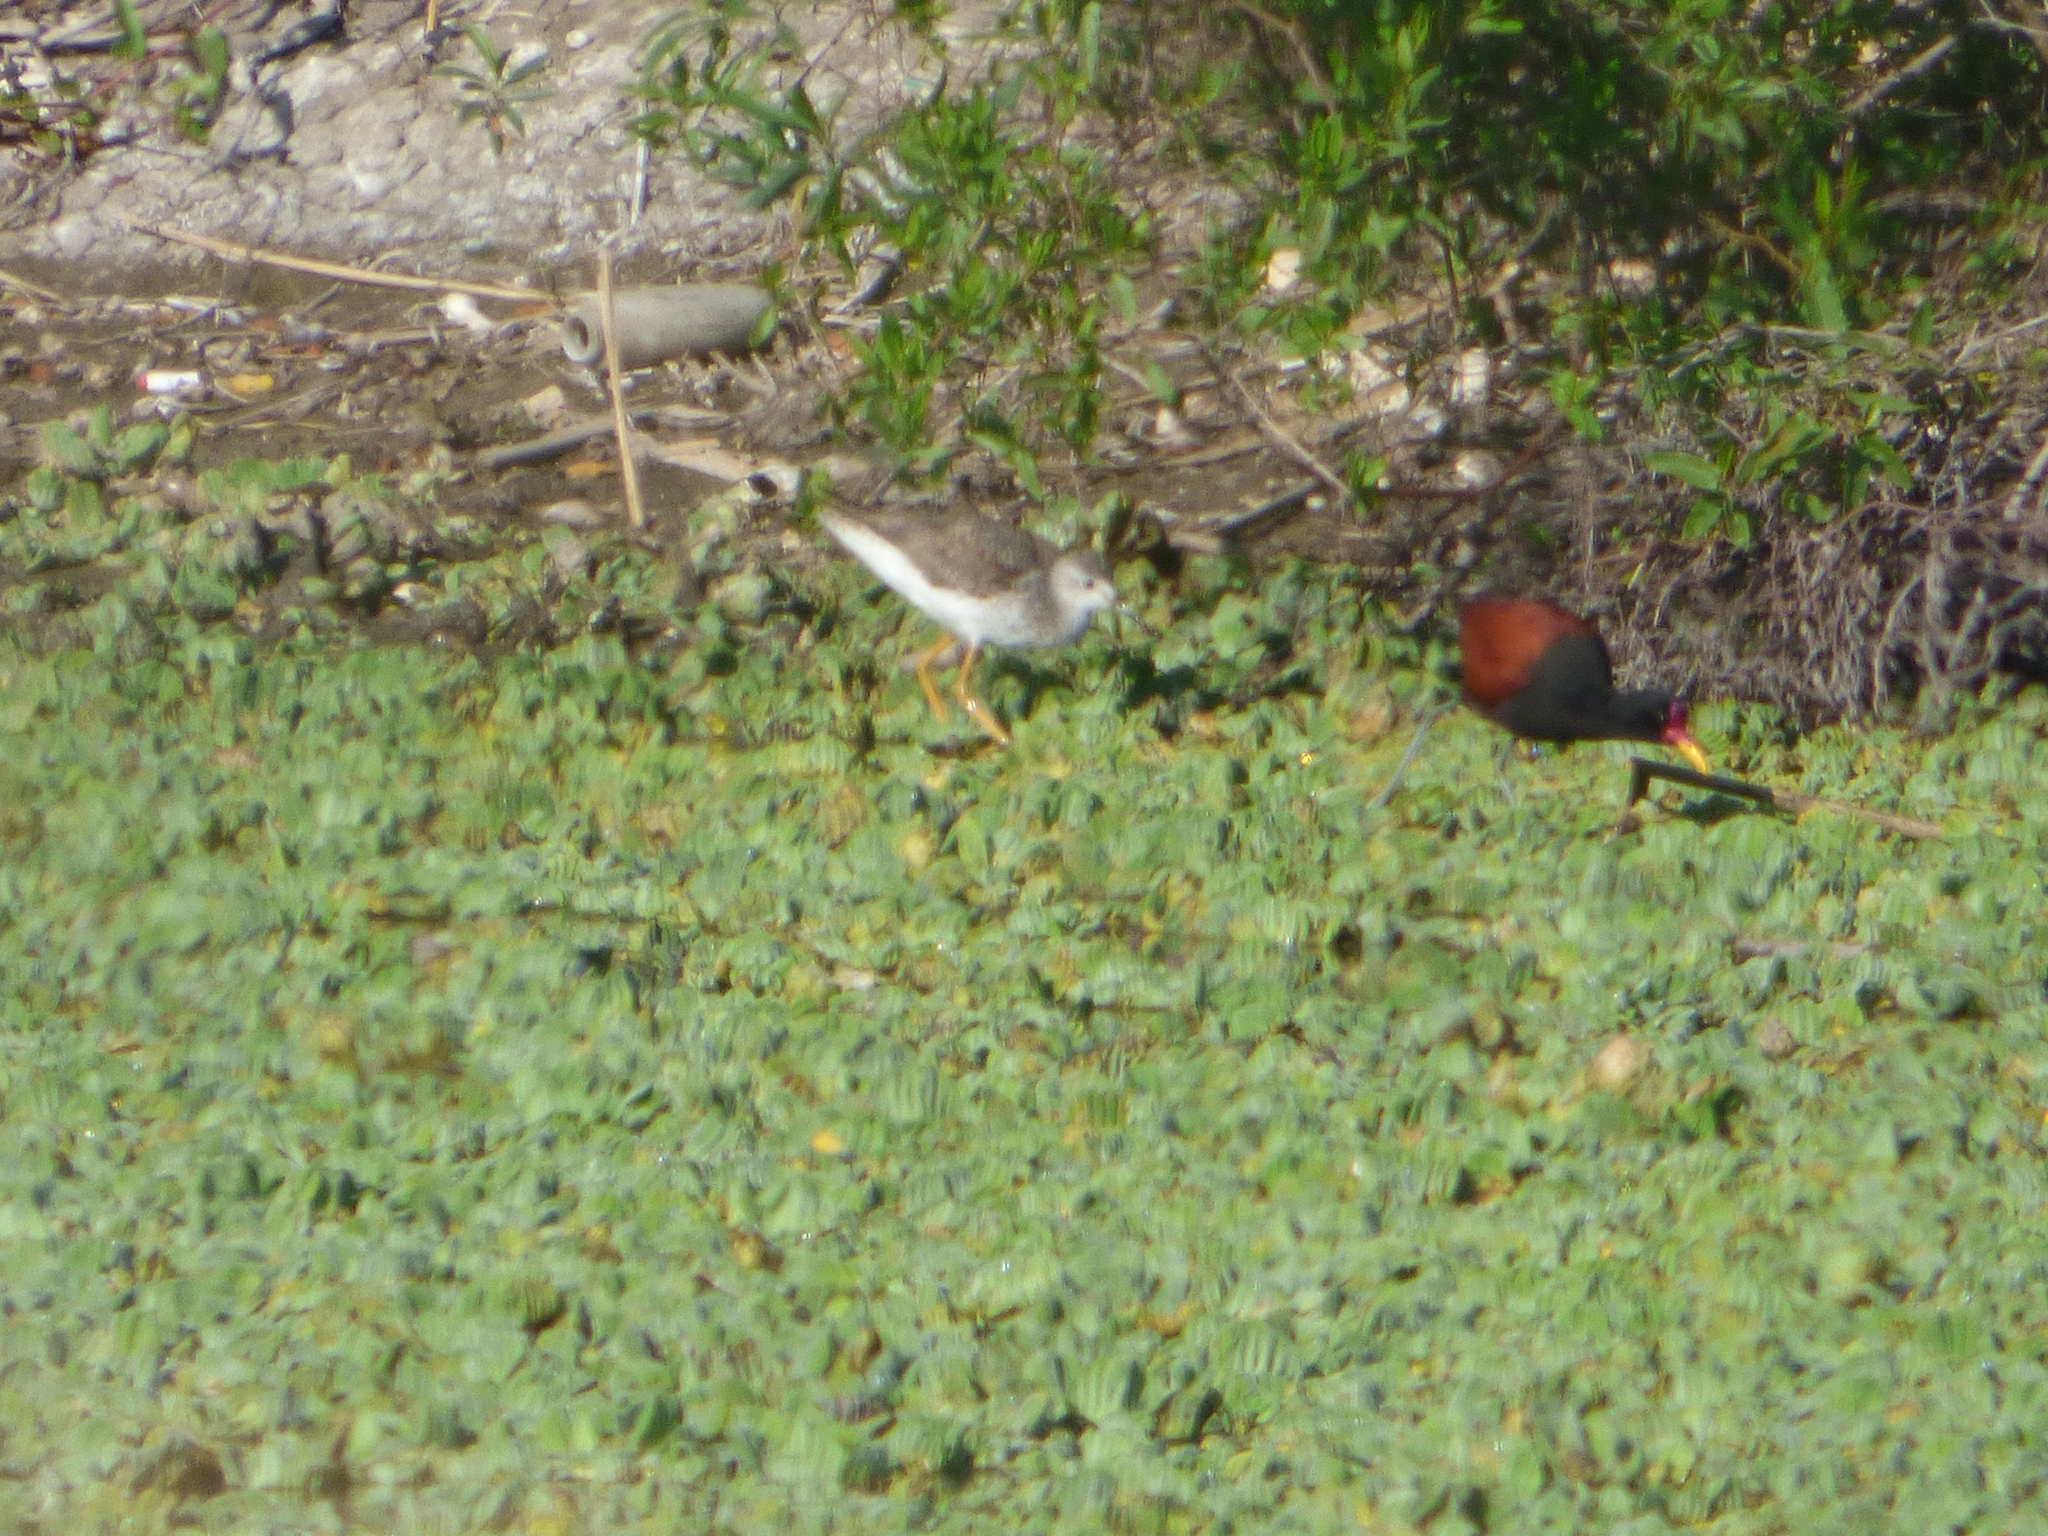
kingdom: Animalia
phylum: Chordata
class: Aves
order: Charadriiformes
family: Scolopacidae
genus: Tringa
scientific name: Tringa flavipes
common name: Lesser yellowlegs
